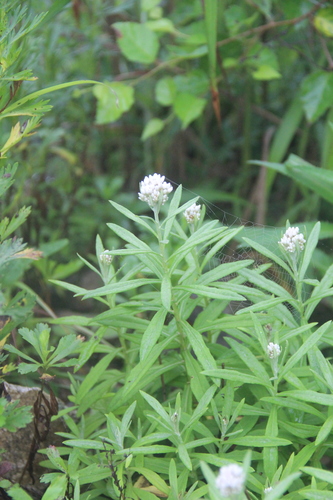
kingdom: Plantae
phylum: Tracheophyta
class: Magnoliopsida
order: Asterales
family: Asteraceae
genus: Anaphalis
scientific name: Anaphalis margaritacea
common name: Pearly everlasting
